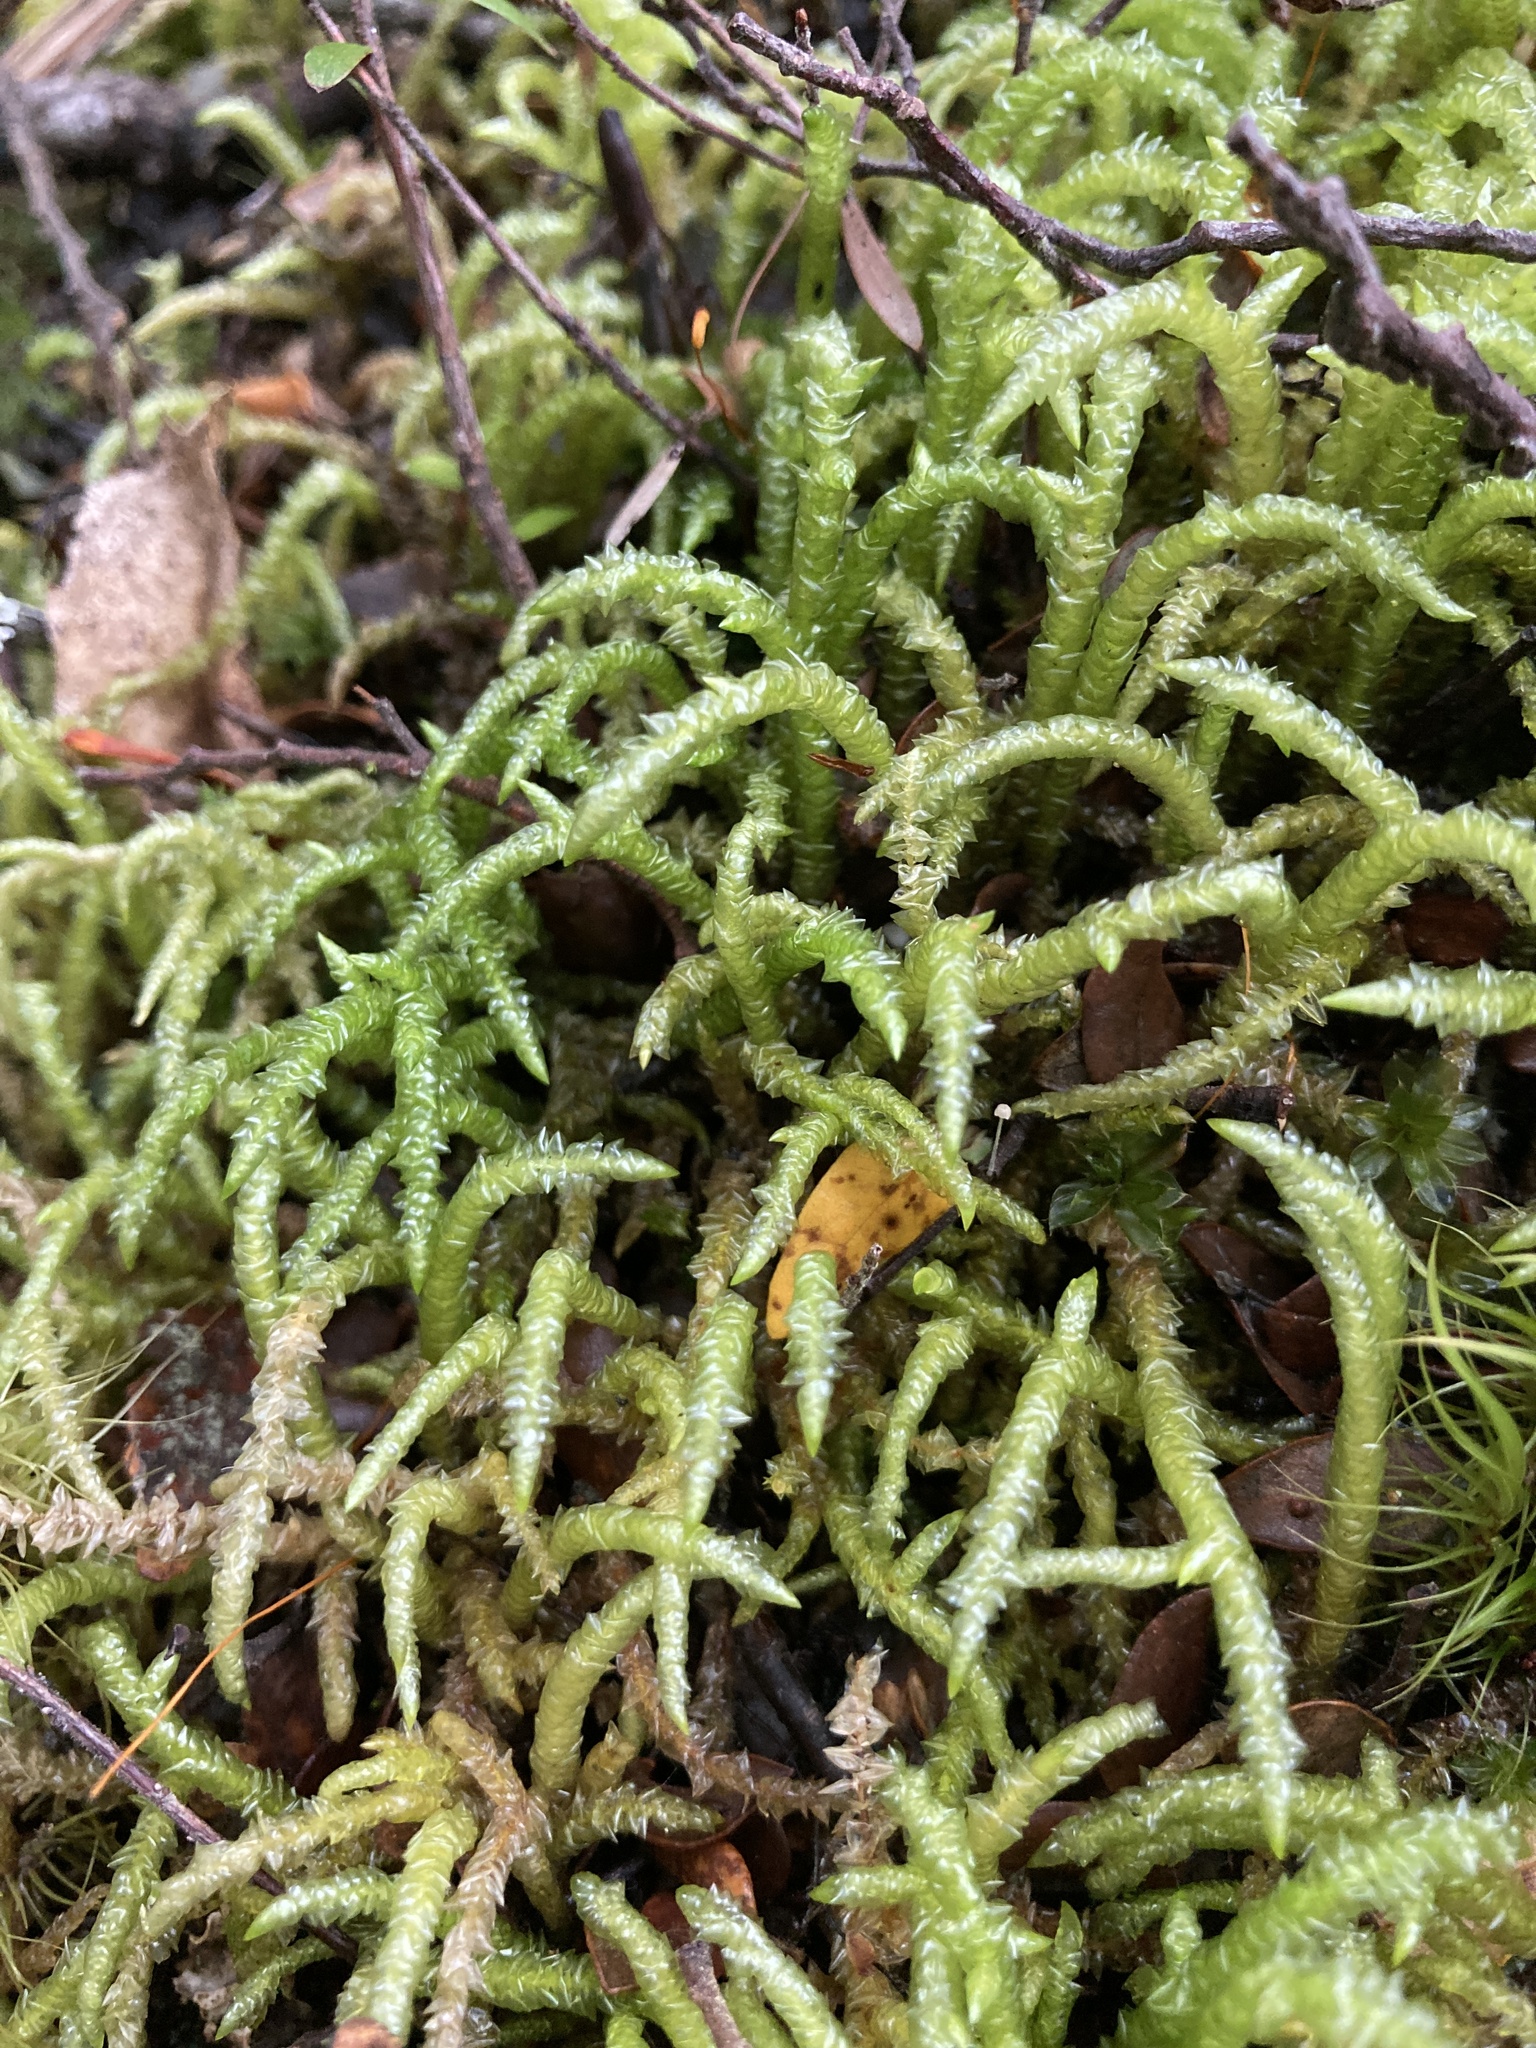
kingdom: Plantae
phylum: Bryophyta
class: Bryopsida
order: Hypnales
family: Acrocladiaceae
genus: Acrocladium
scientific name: Acrocladium chlamydophyllum
